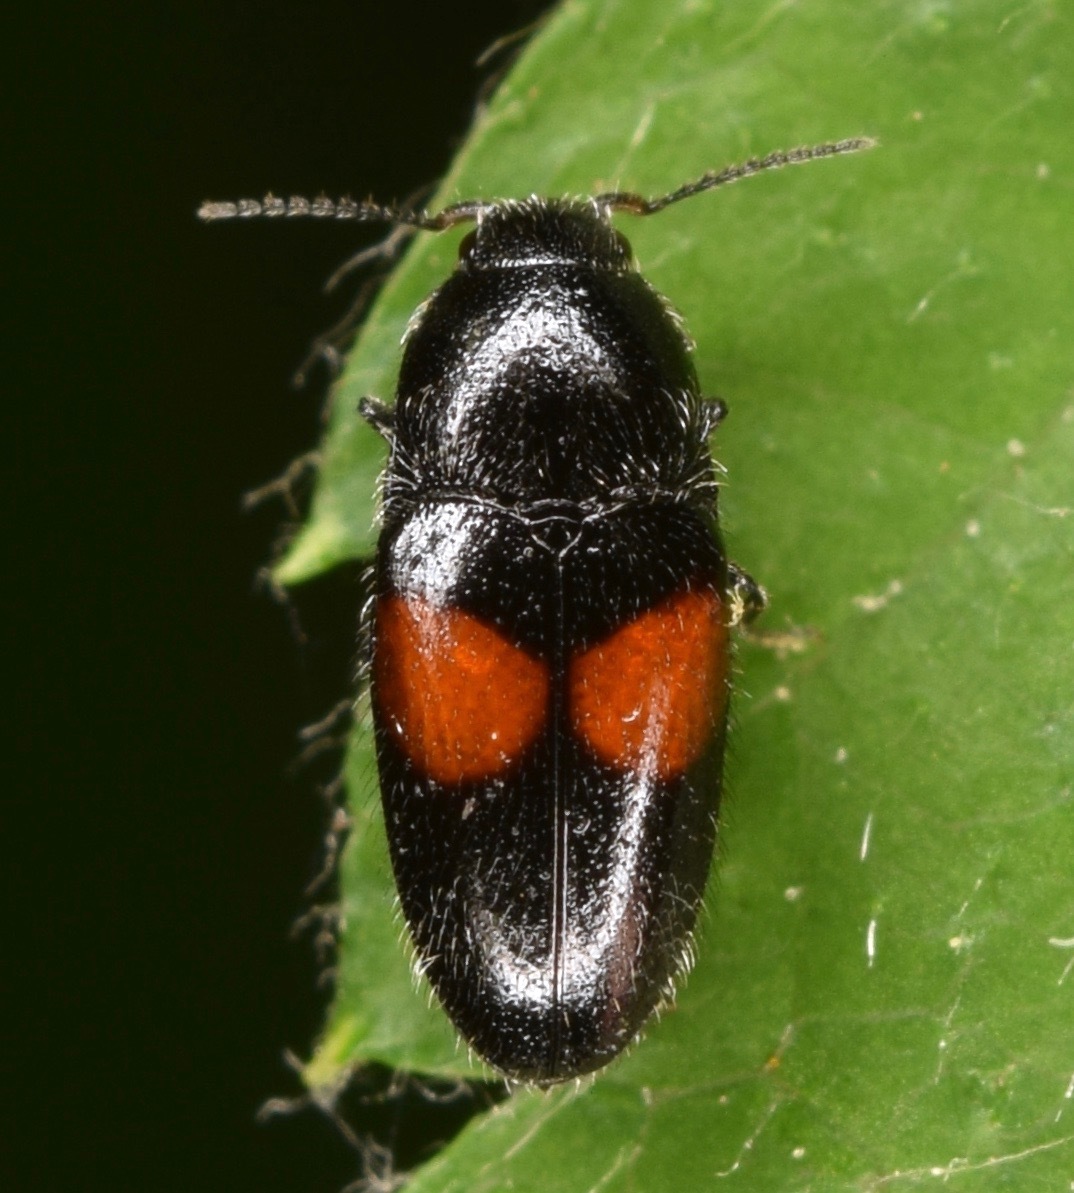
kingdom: Animalia
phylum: Arthropoda
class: Insecta
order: Coleoptera
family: Elateridae
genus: Drapetes
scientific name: Drapetes exstriatus
